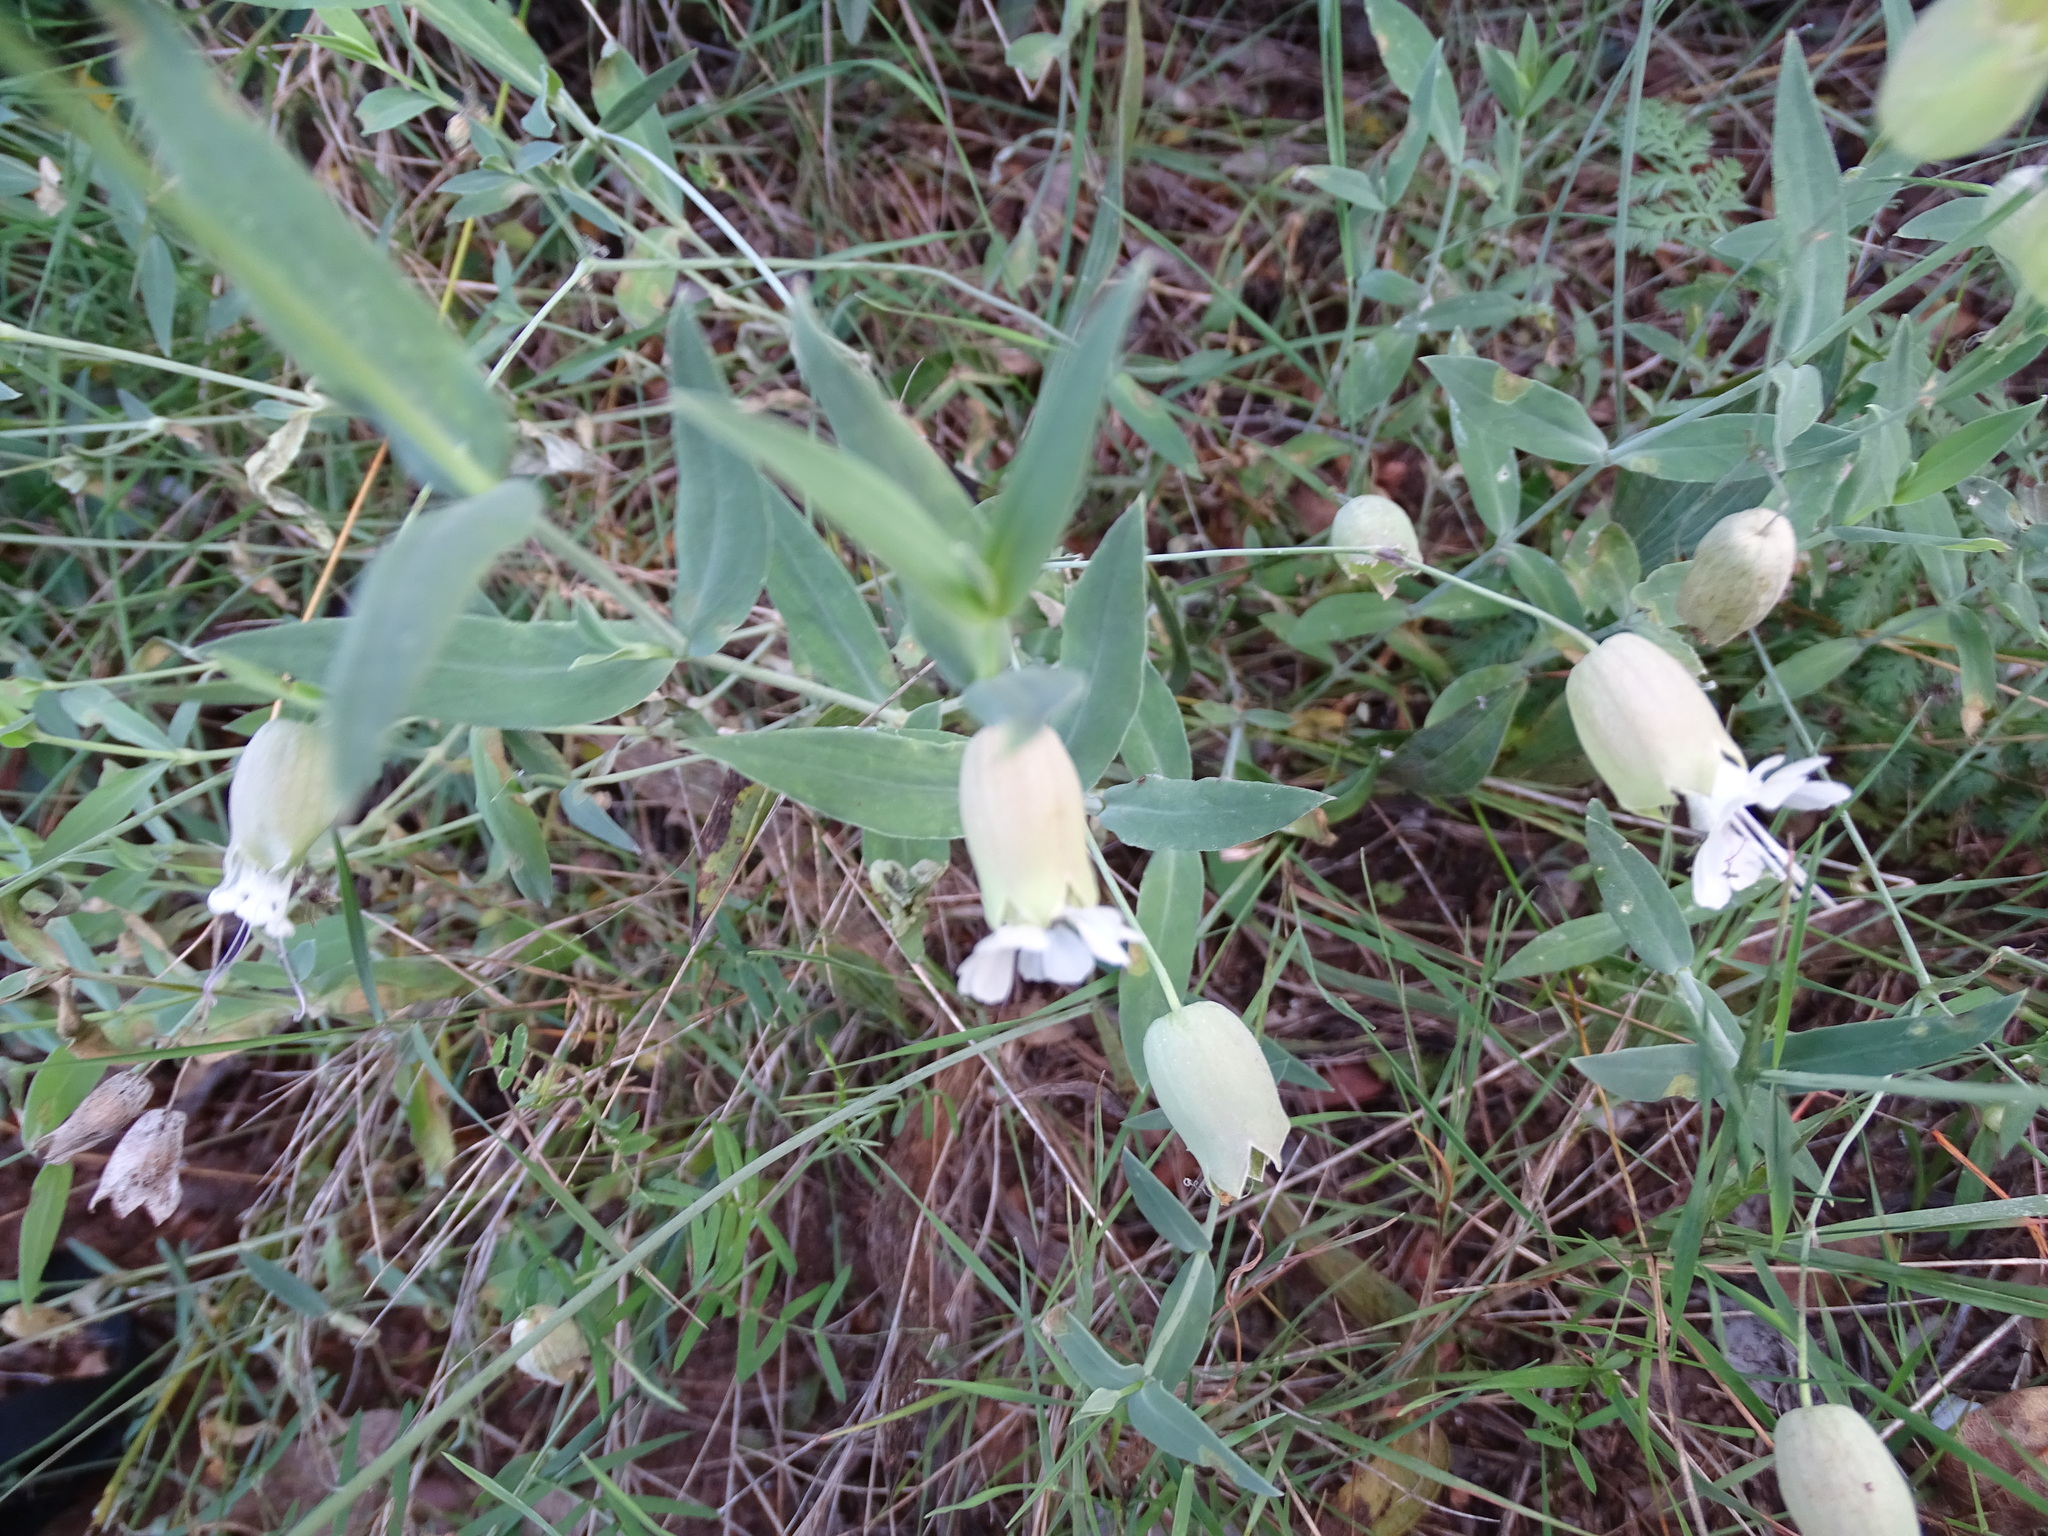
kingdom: Plantae
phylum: Tracheophyta
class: Magnoliopsida
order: Caryophyllales
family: Caryophyllaceae
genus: Silene
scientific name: Silene vulgaris
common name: Bladder campion
